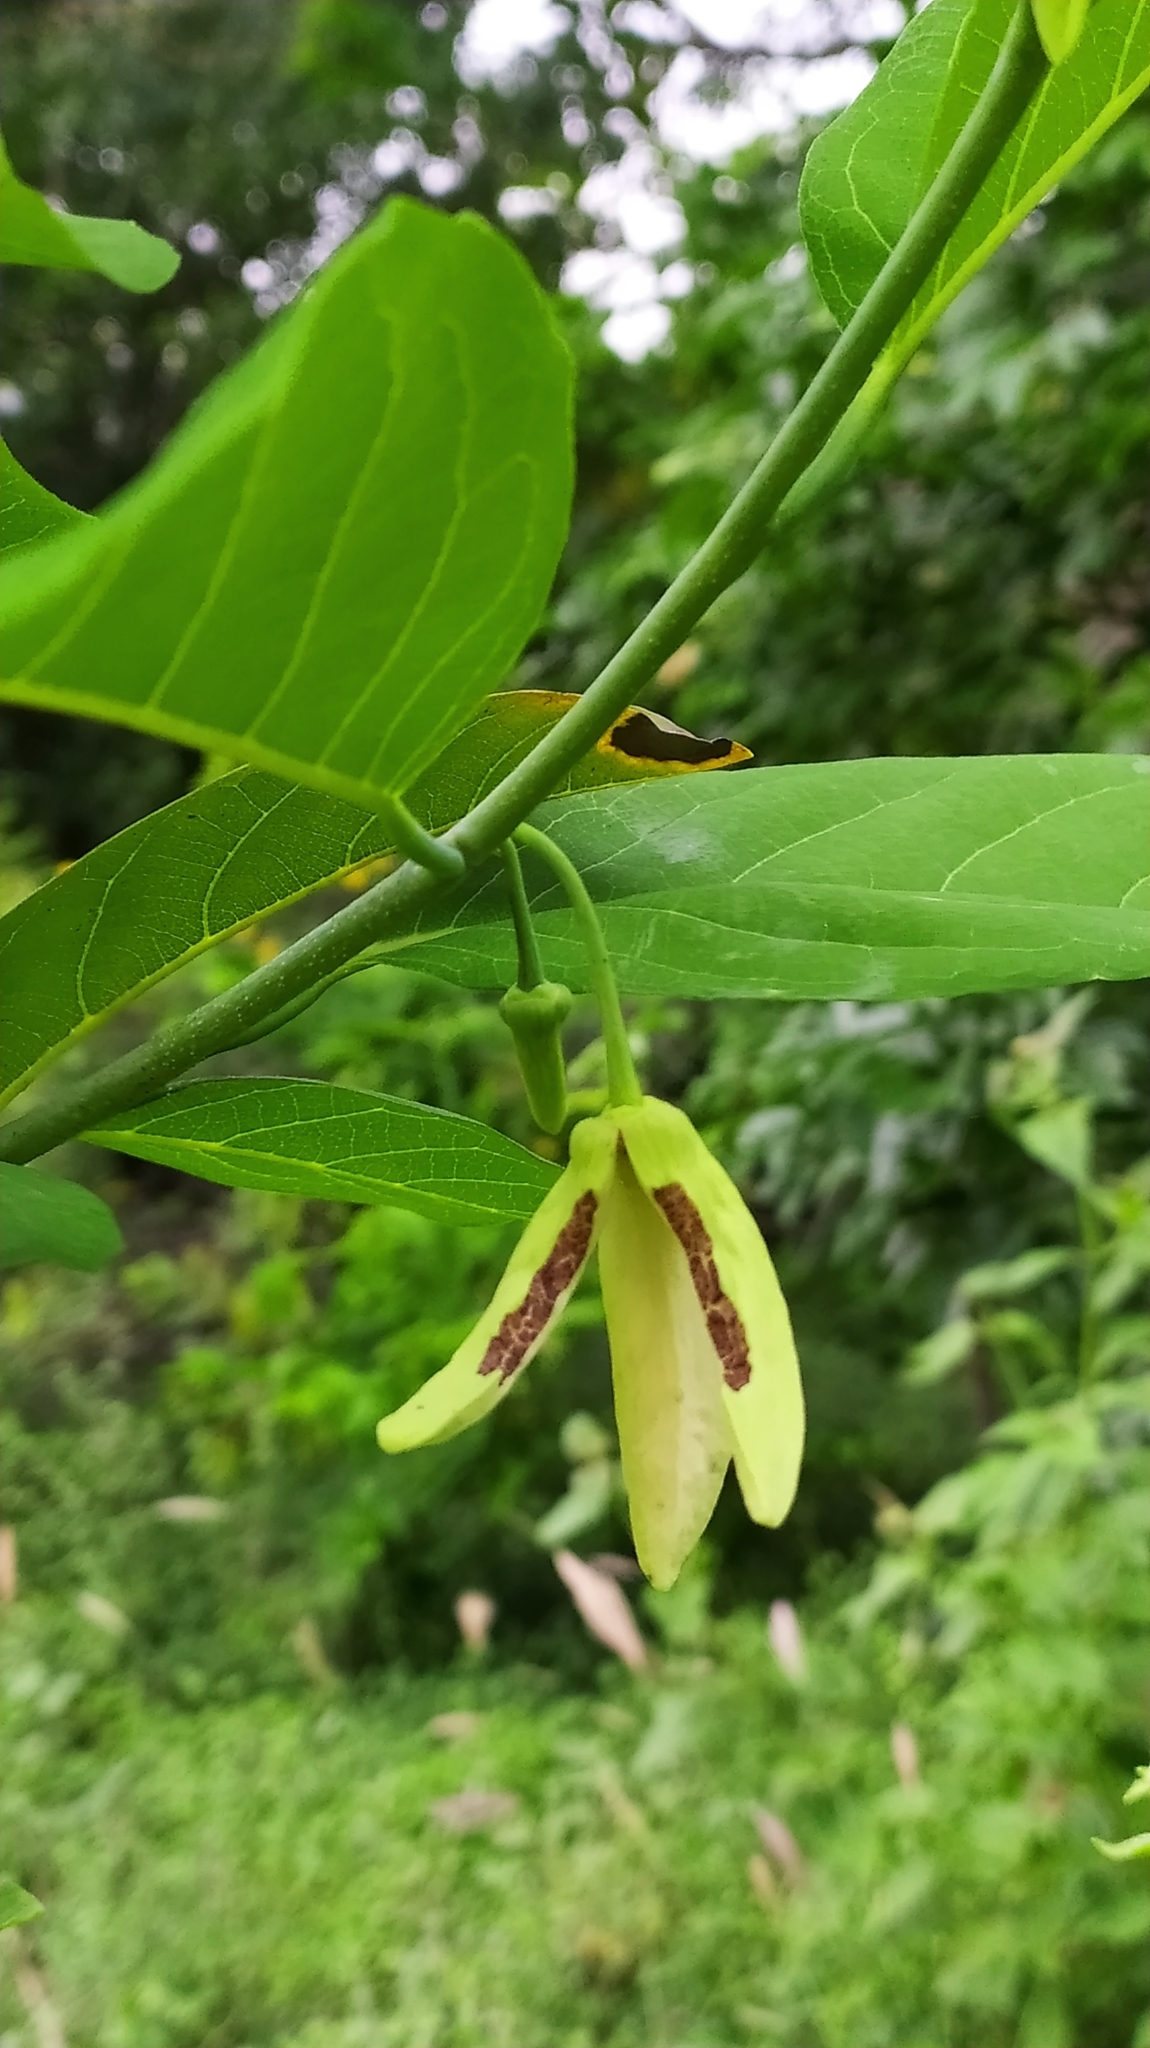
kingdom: Plantae
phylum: Tracheophyta
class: Magnoliopsida
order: Magnoliales
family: Annonaceae
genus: Annona
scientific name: Annona squamosa
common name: Custard-apple
